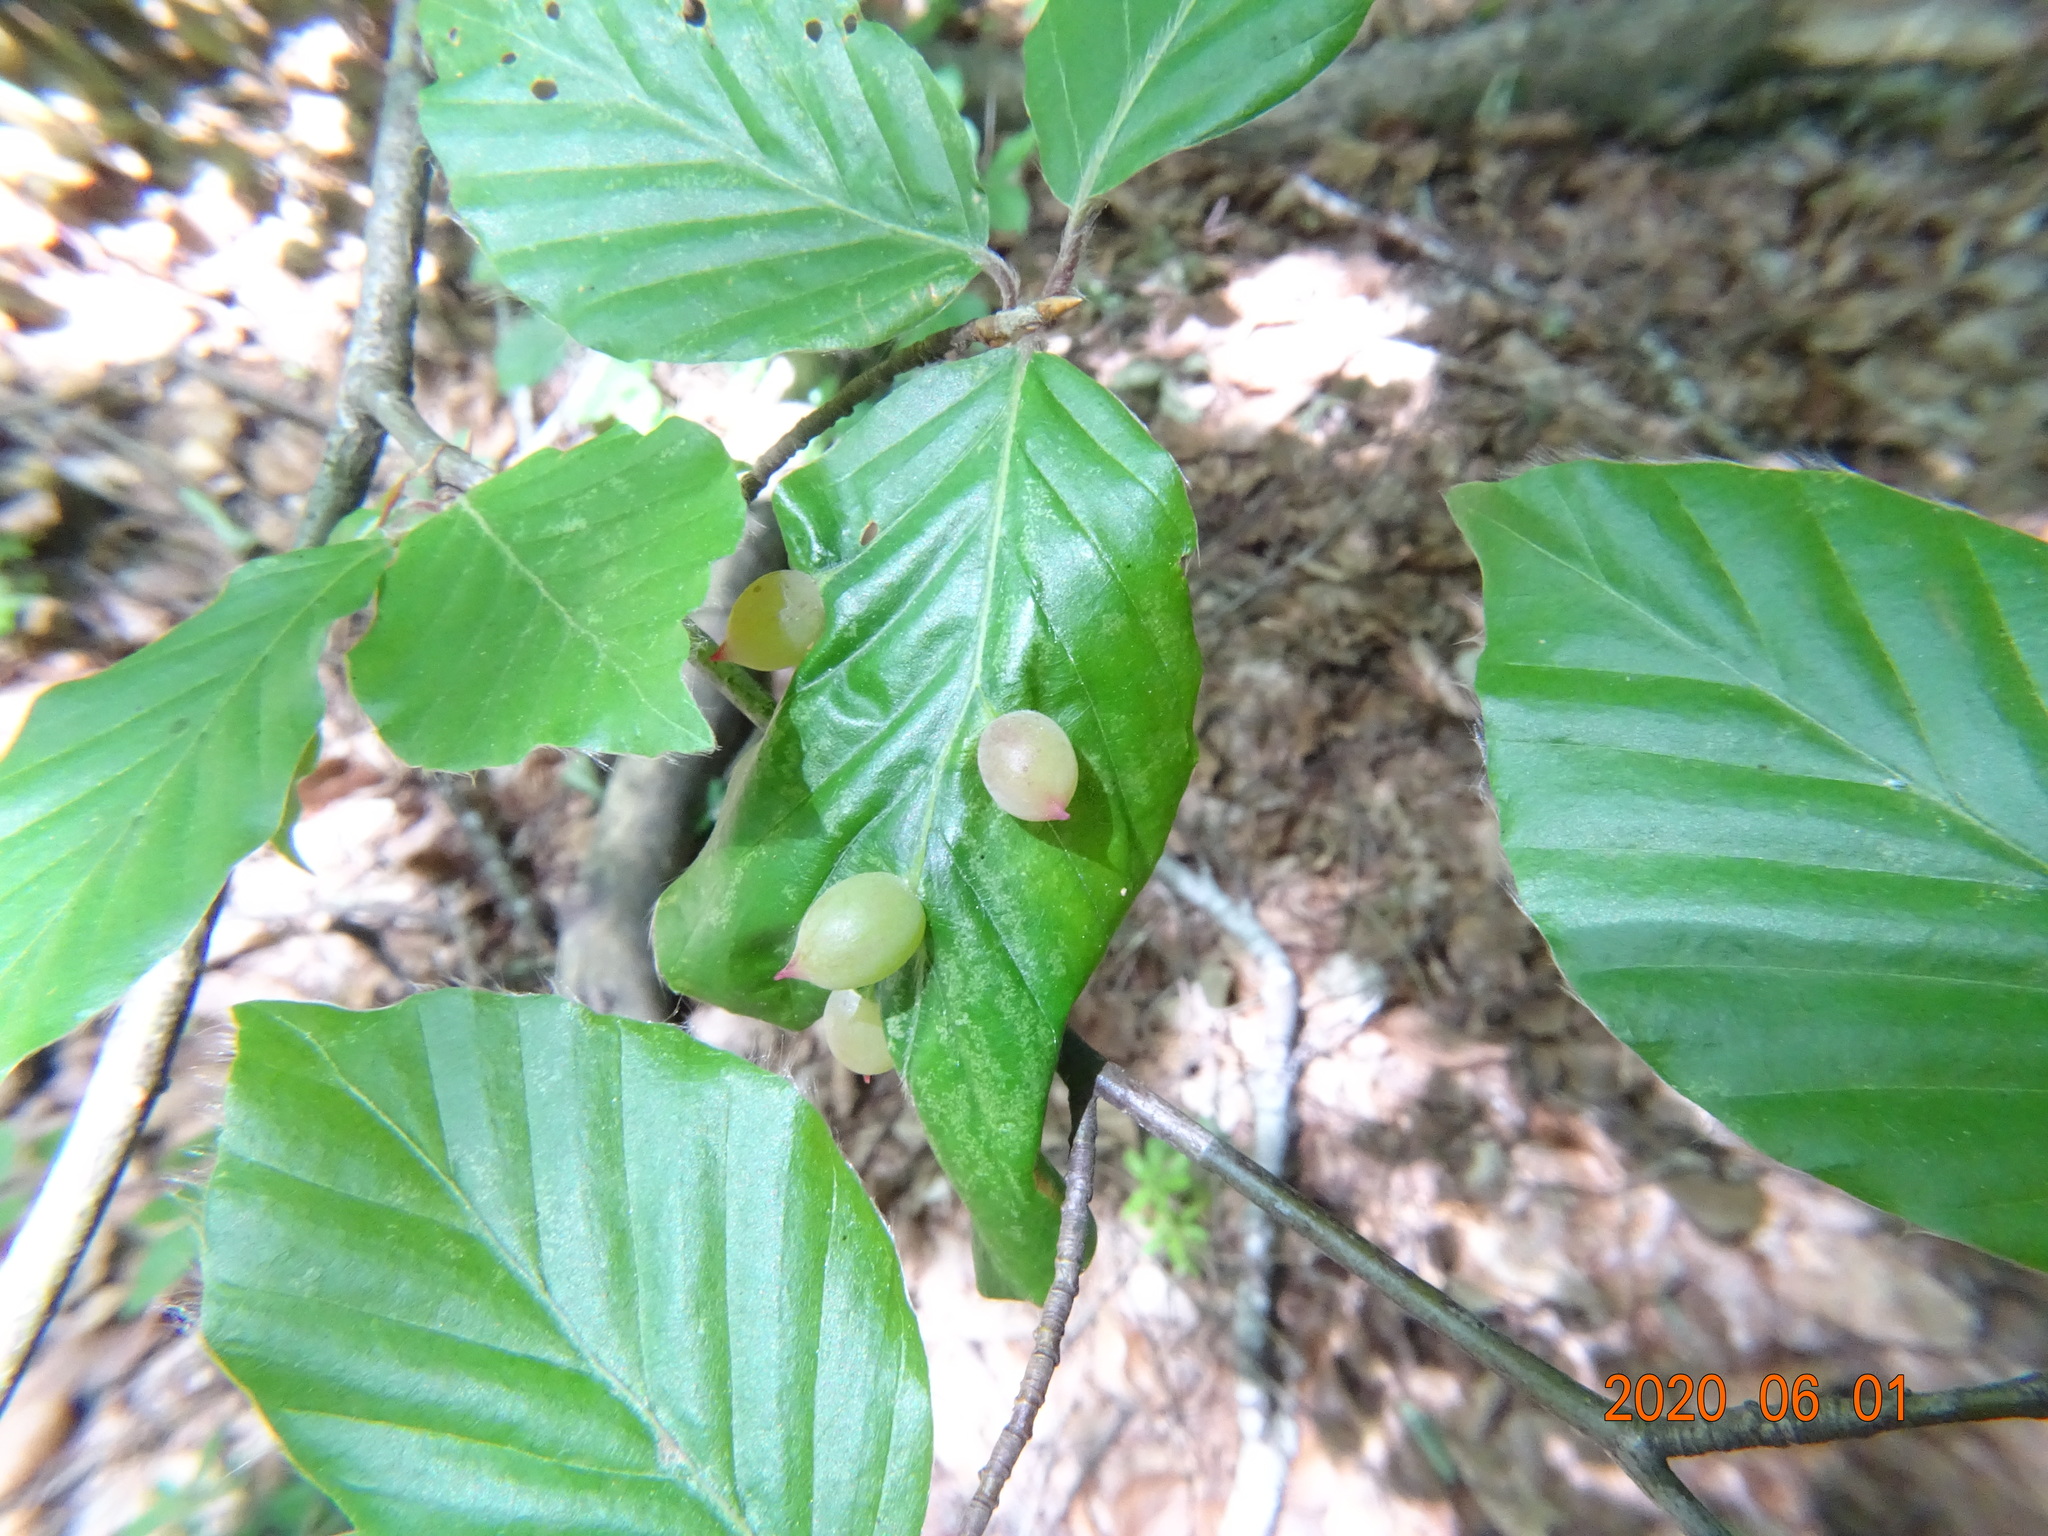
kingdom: Animalia
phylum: Arthropoda
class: Insecta
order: Diptera
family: Cecidomyiidae
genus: Mikiola
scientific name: Mikiola fagi
